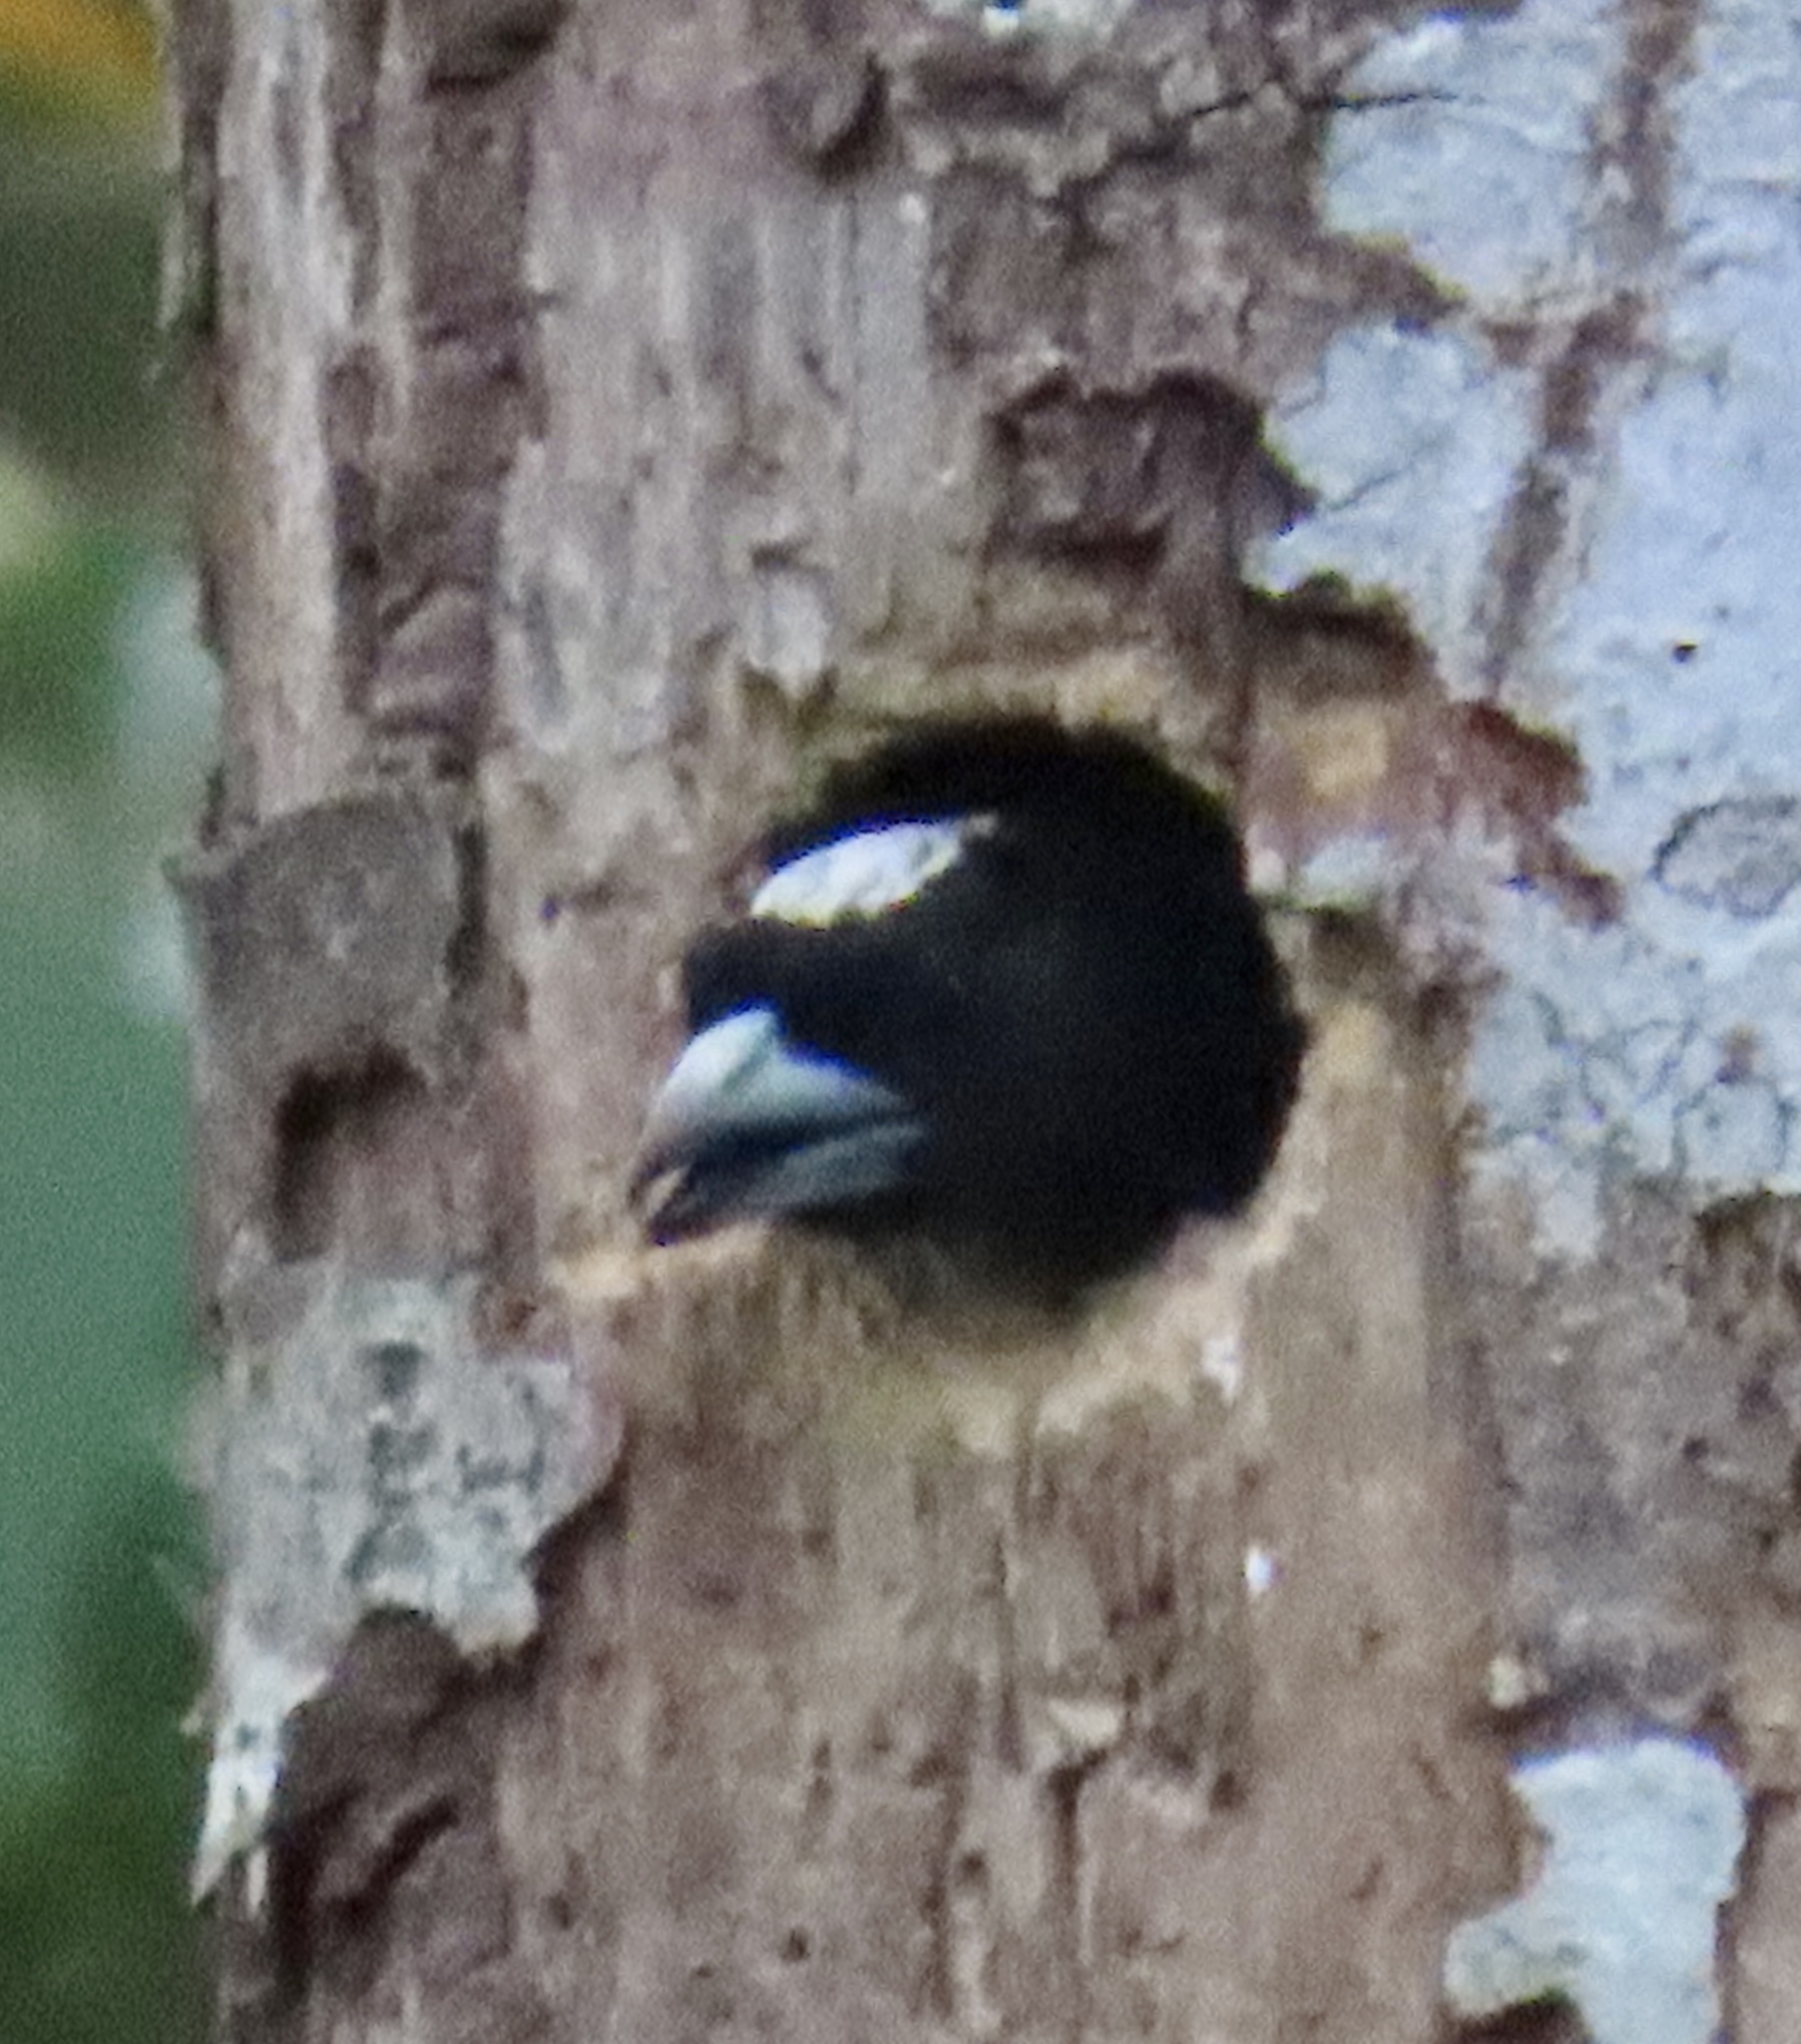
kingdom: Animalia
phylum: Chordata
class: Aves
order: Piciformes
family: Capitonidae
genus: Capito
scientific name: Capito maculicoronatus
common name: Spot-crowned barbet
